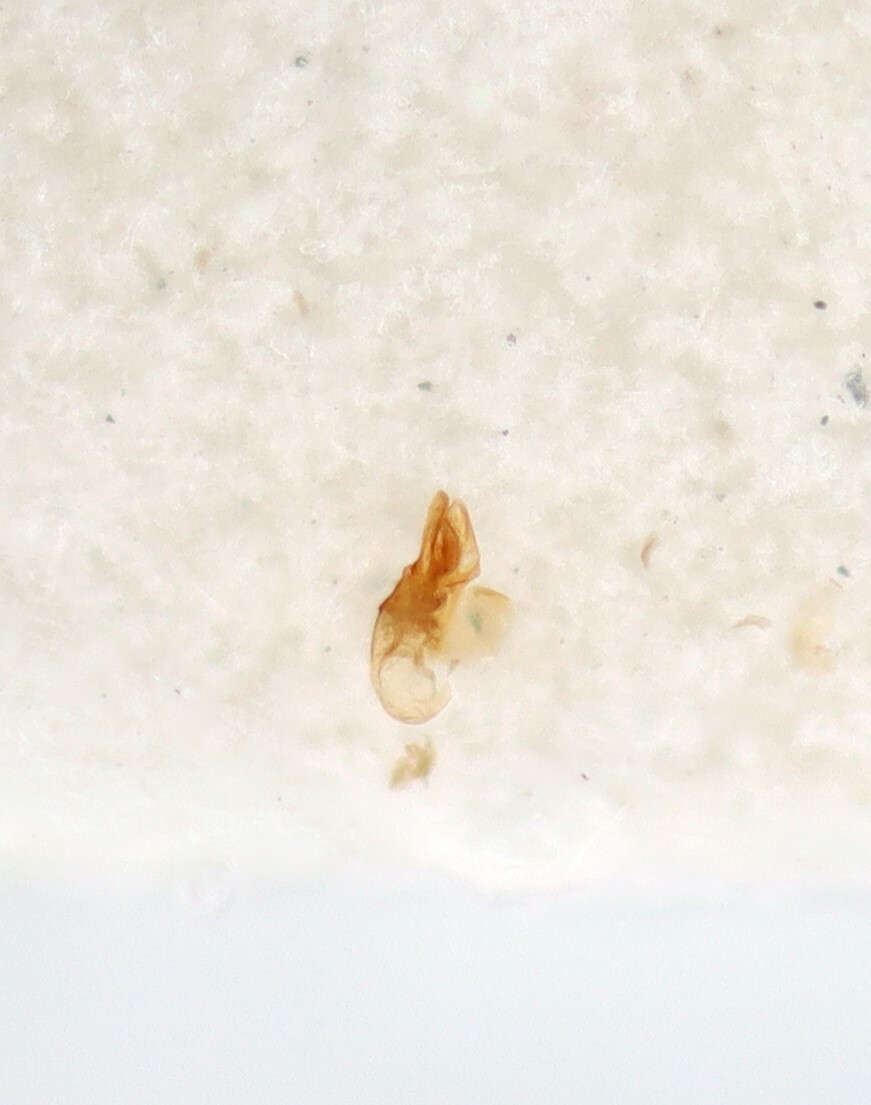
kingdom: Animalia
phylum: Arthropoda
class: Insecta
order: Coleoptera
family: Staphylinidae
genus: Myrmecocephalus
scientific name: Myrmecocephalus cingulatus
